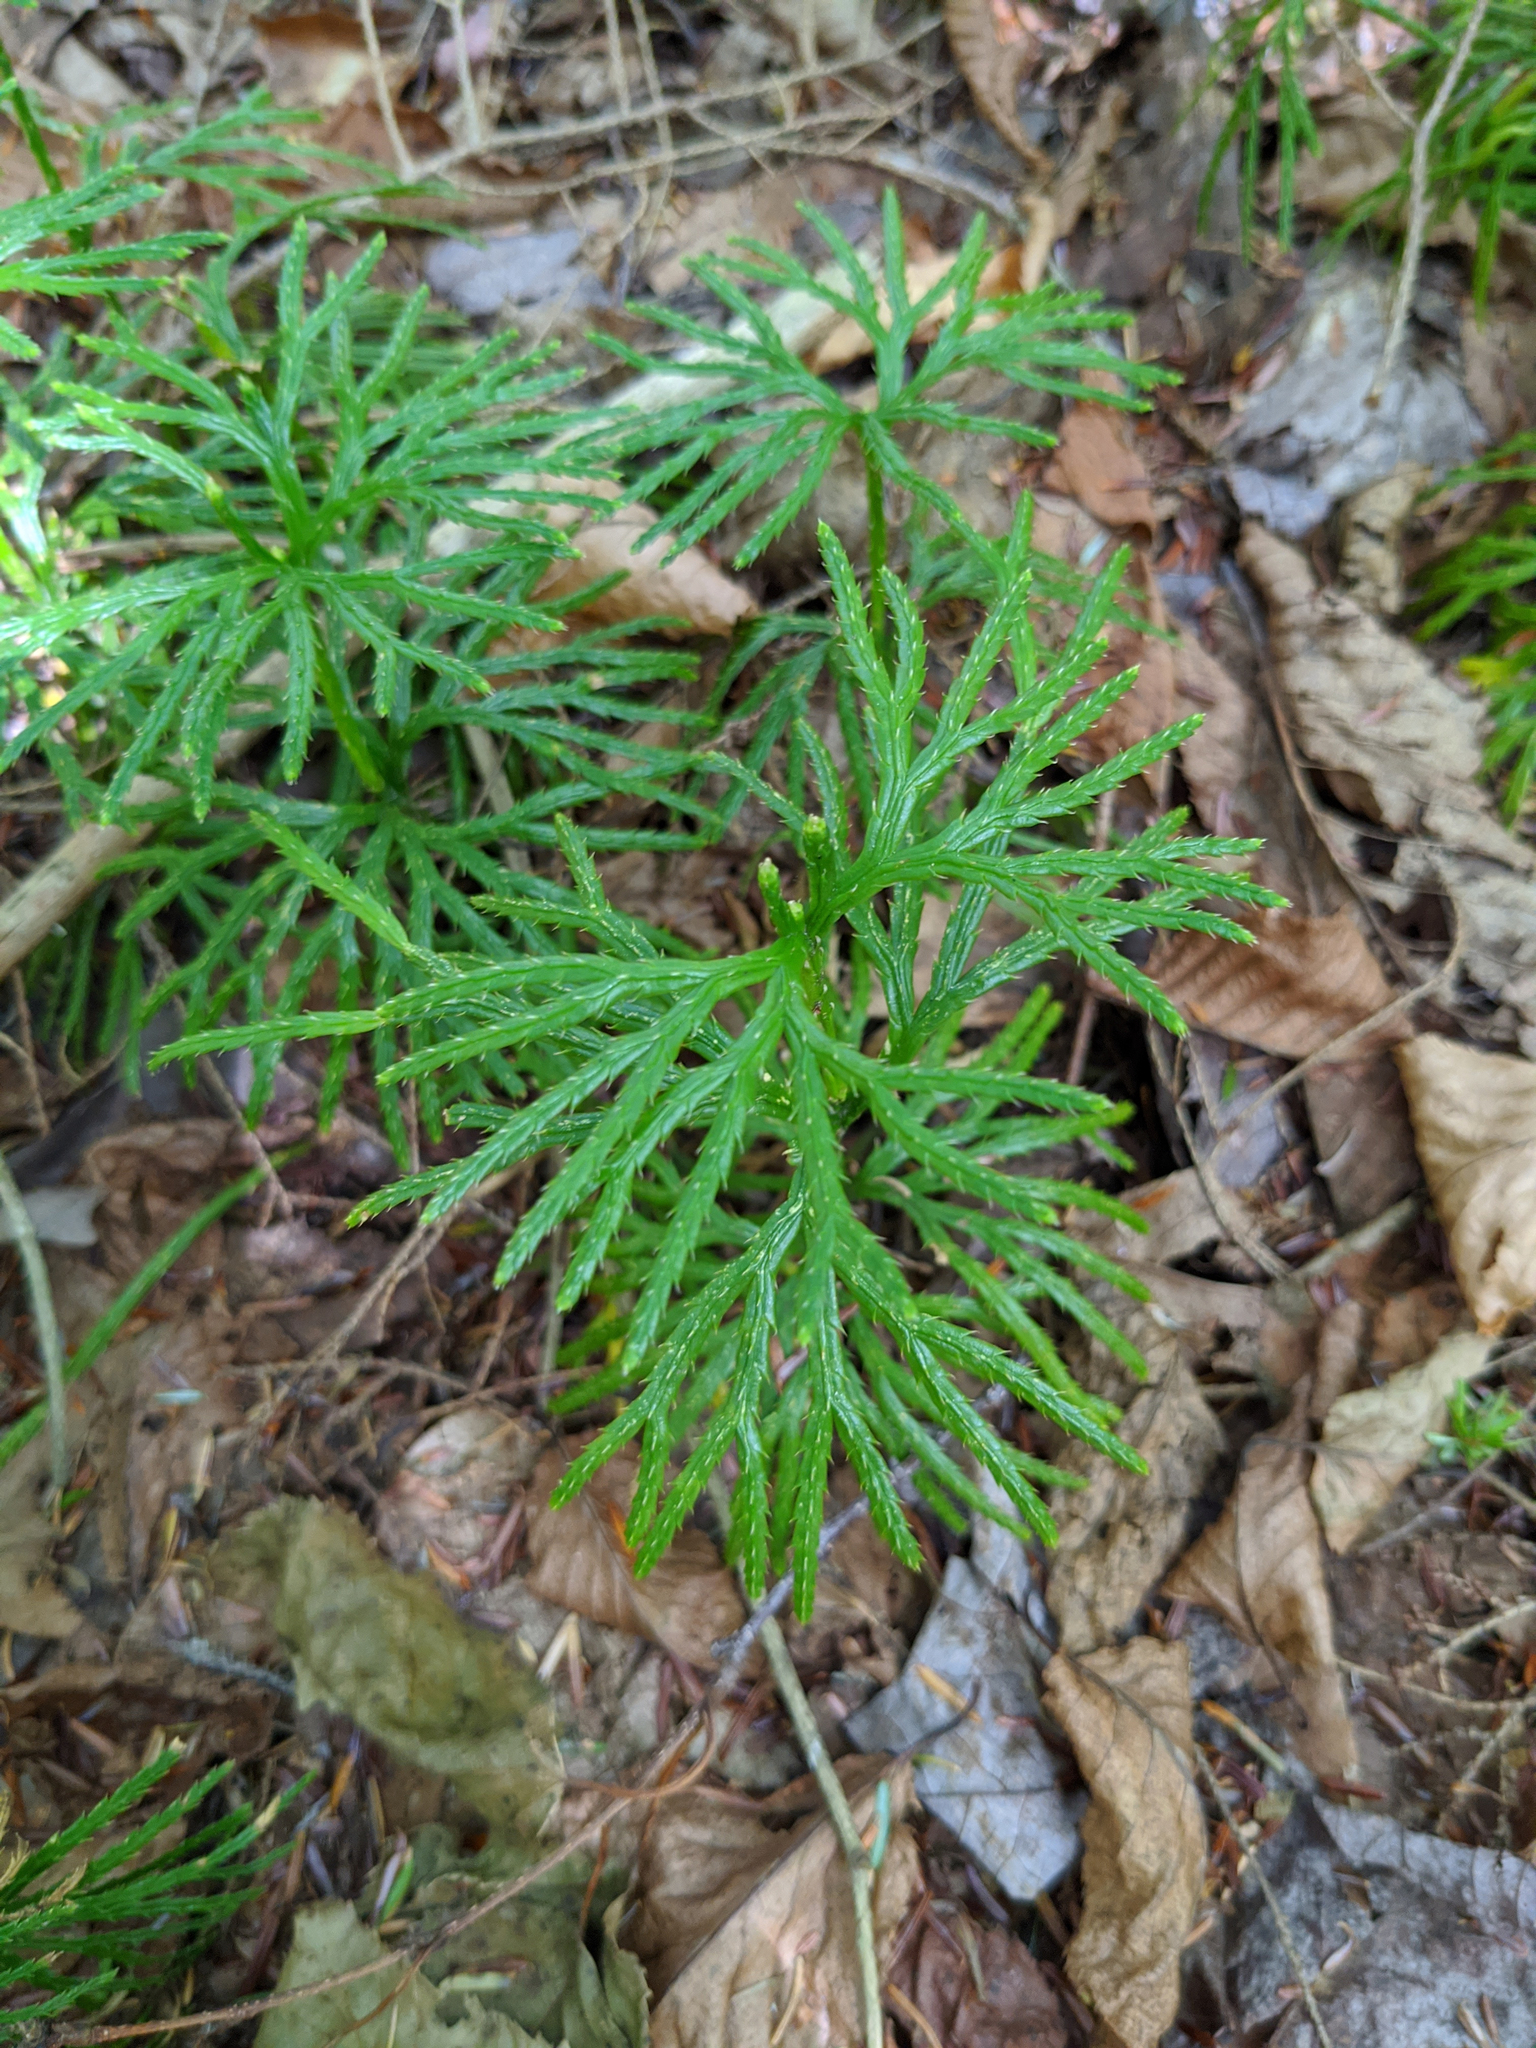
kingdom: Plantae
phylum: Tracheophyta
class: Lycopodiopsida
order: Lycopodiales
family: Lycopodiaceae
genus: Diphasiastrum
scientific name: Diphasiastrum digitatum
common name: Southern running-pine
